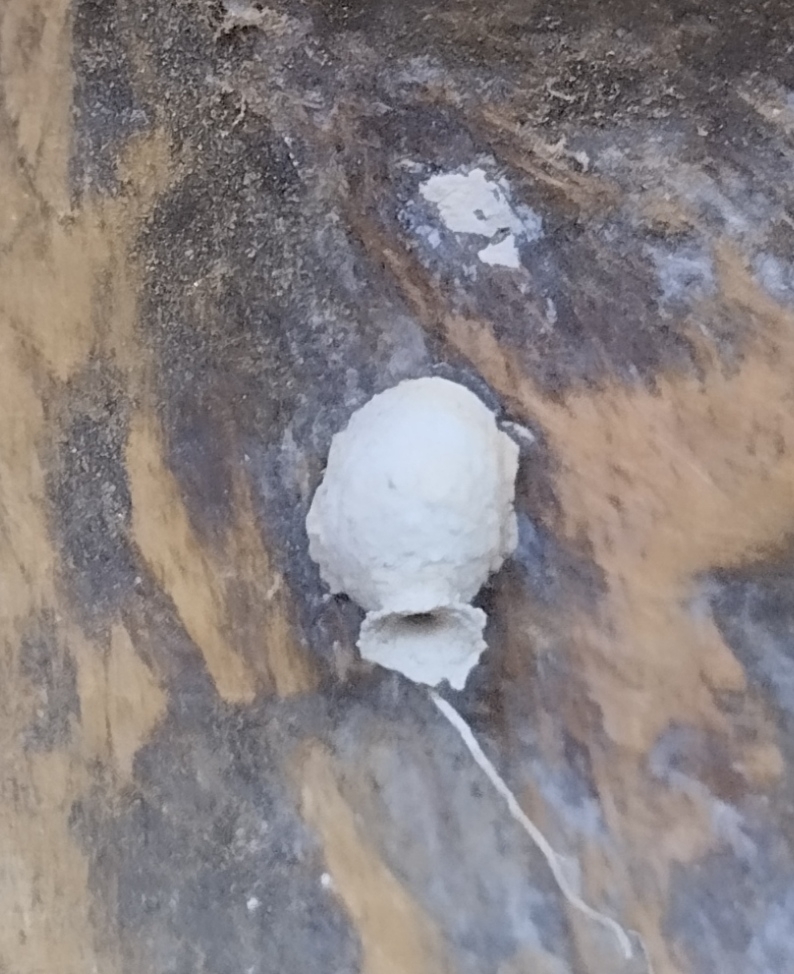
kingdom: Animalia
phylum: Arthropoda
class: Insecta
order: Hymenoptera
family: Eumenidae
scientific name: Eumenidae
